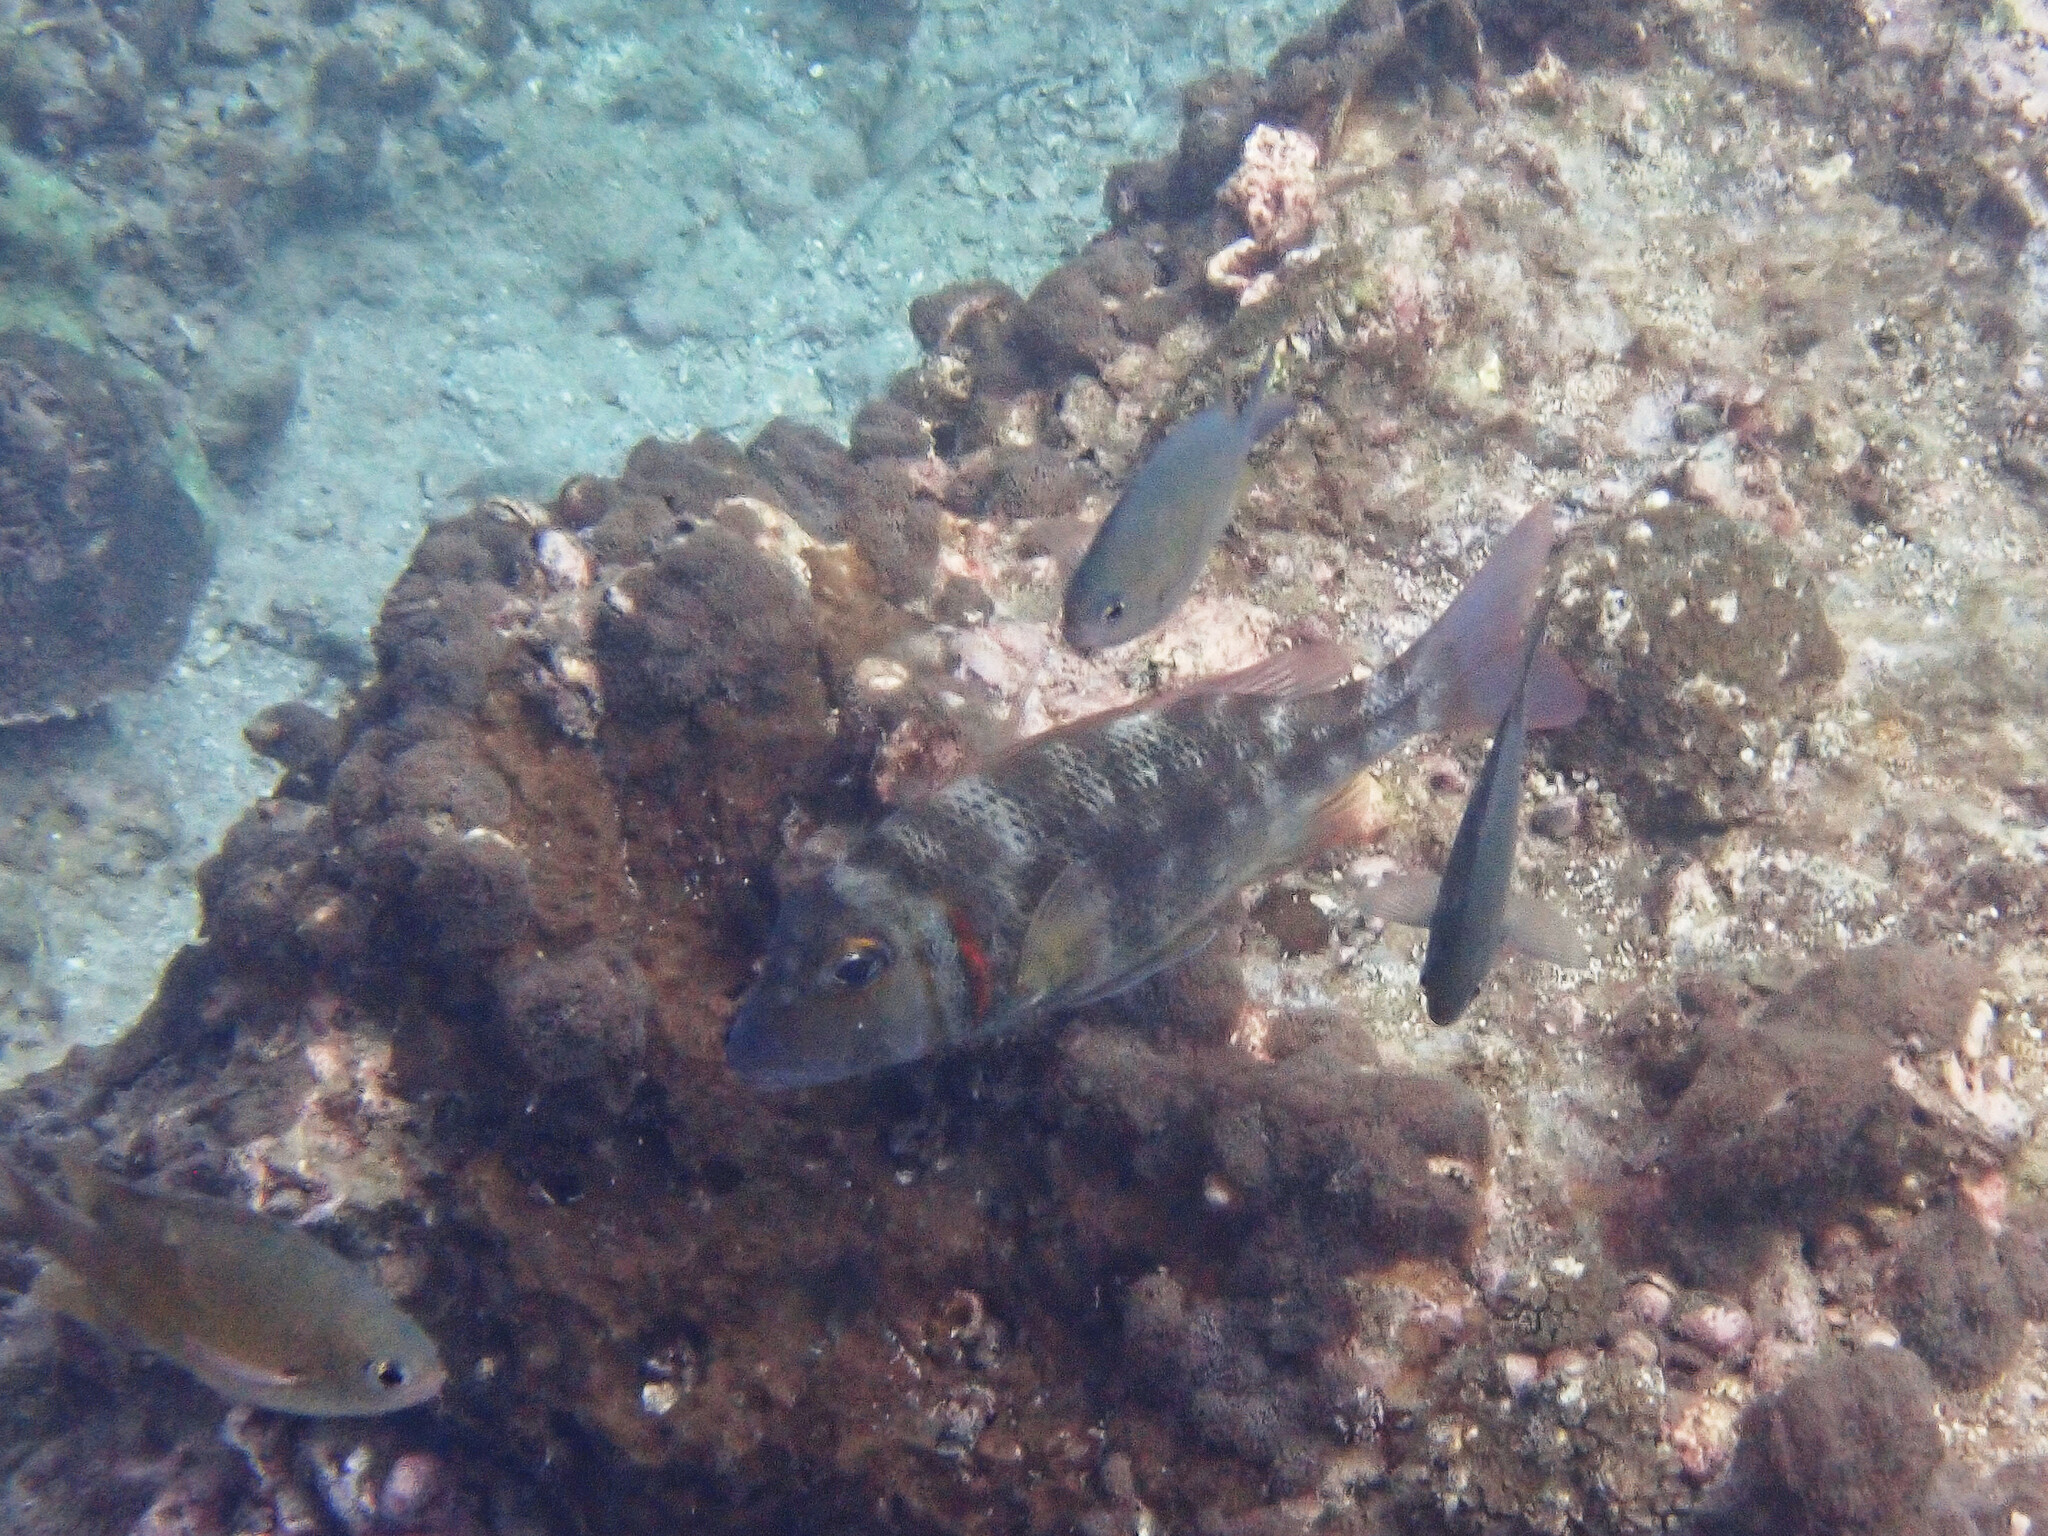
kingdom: Animalia
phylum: Chordata
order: Perciformes
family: Lethrinidae
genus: Lethrinus
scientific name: Lethrinus lentjan
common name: Redspot emperor
